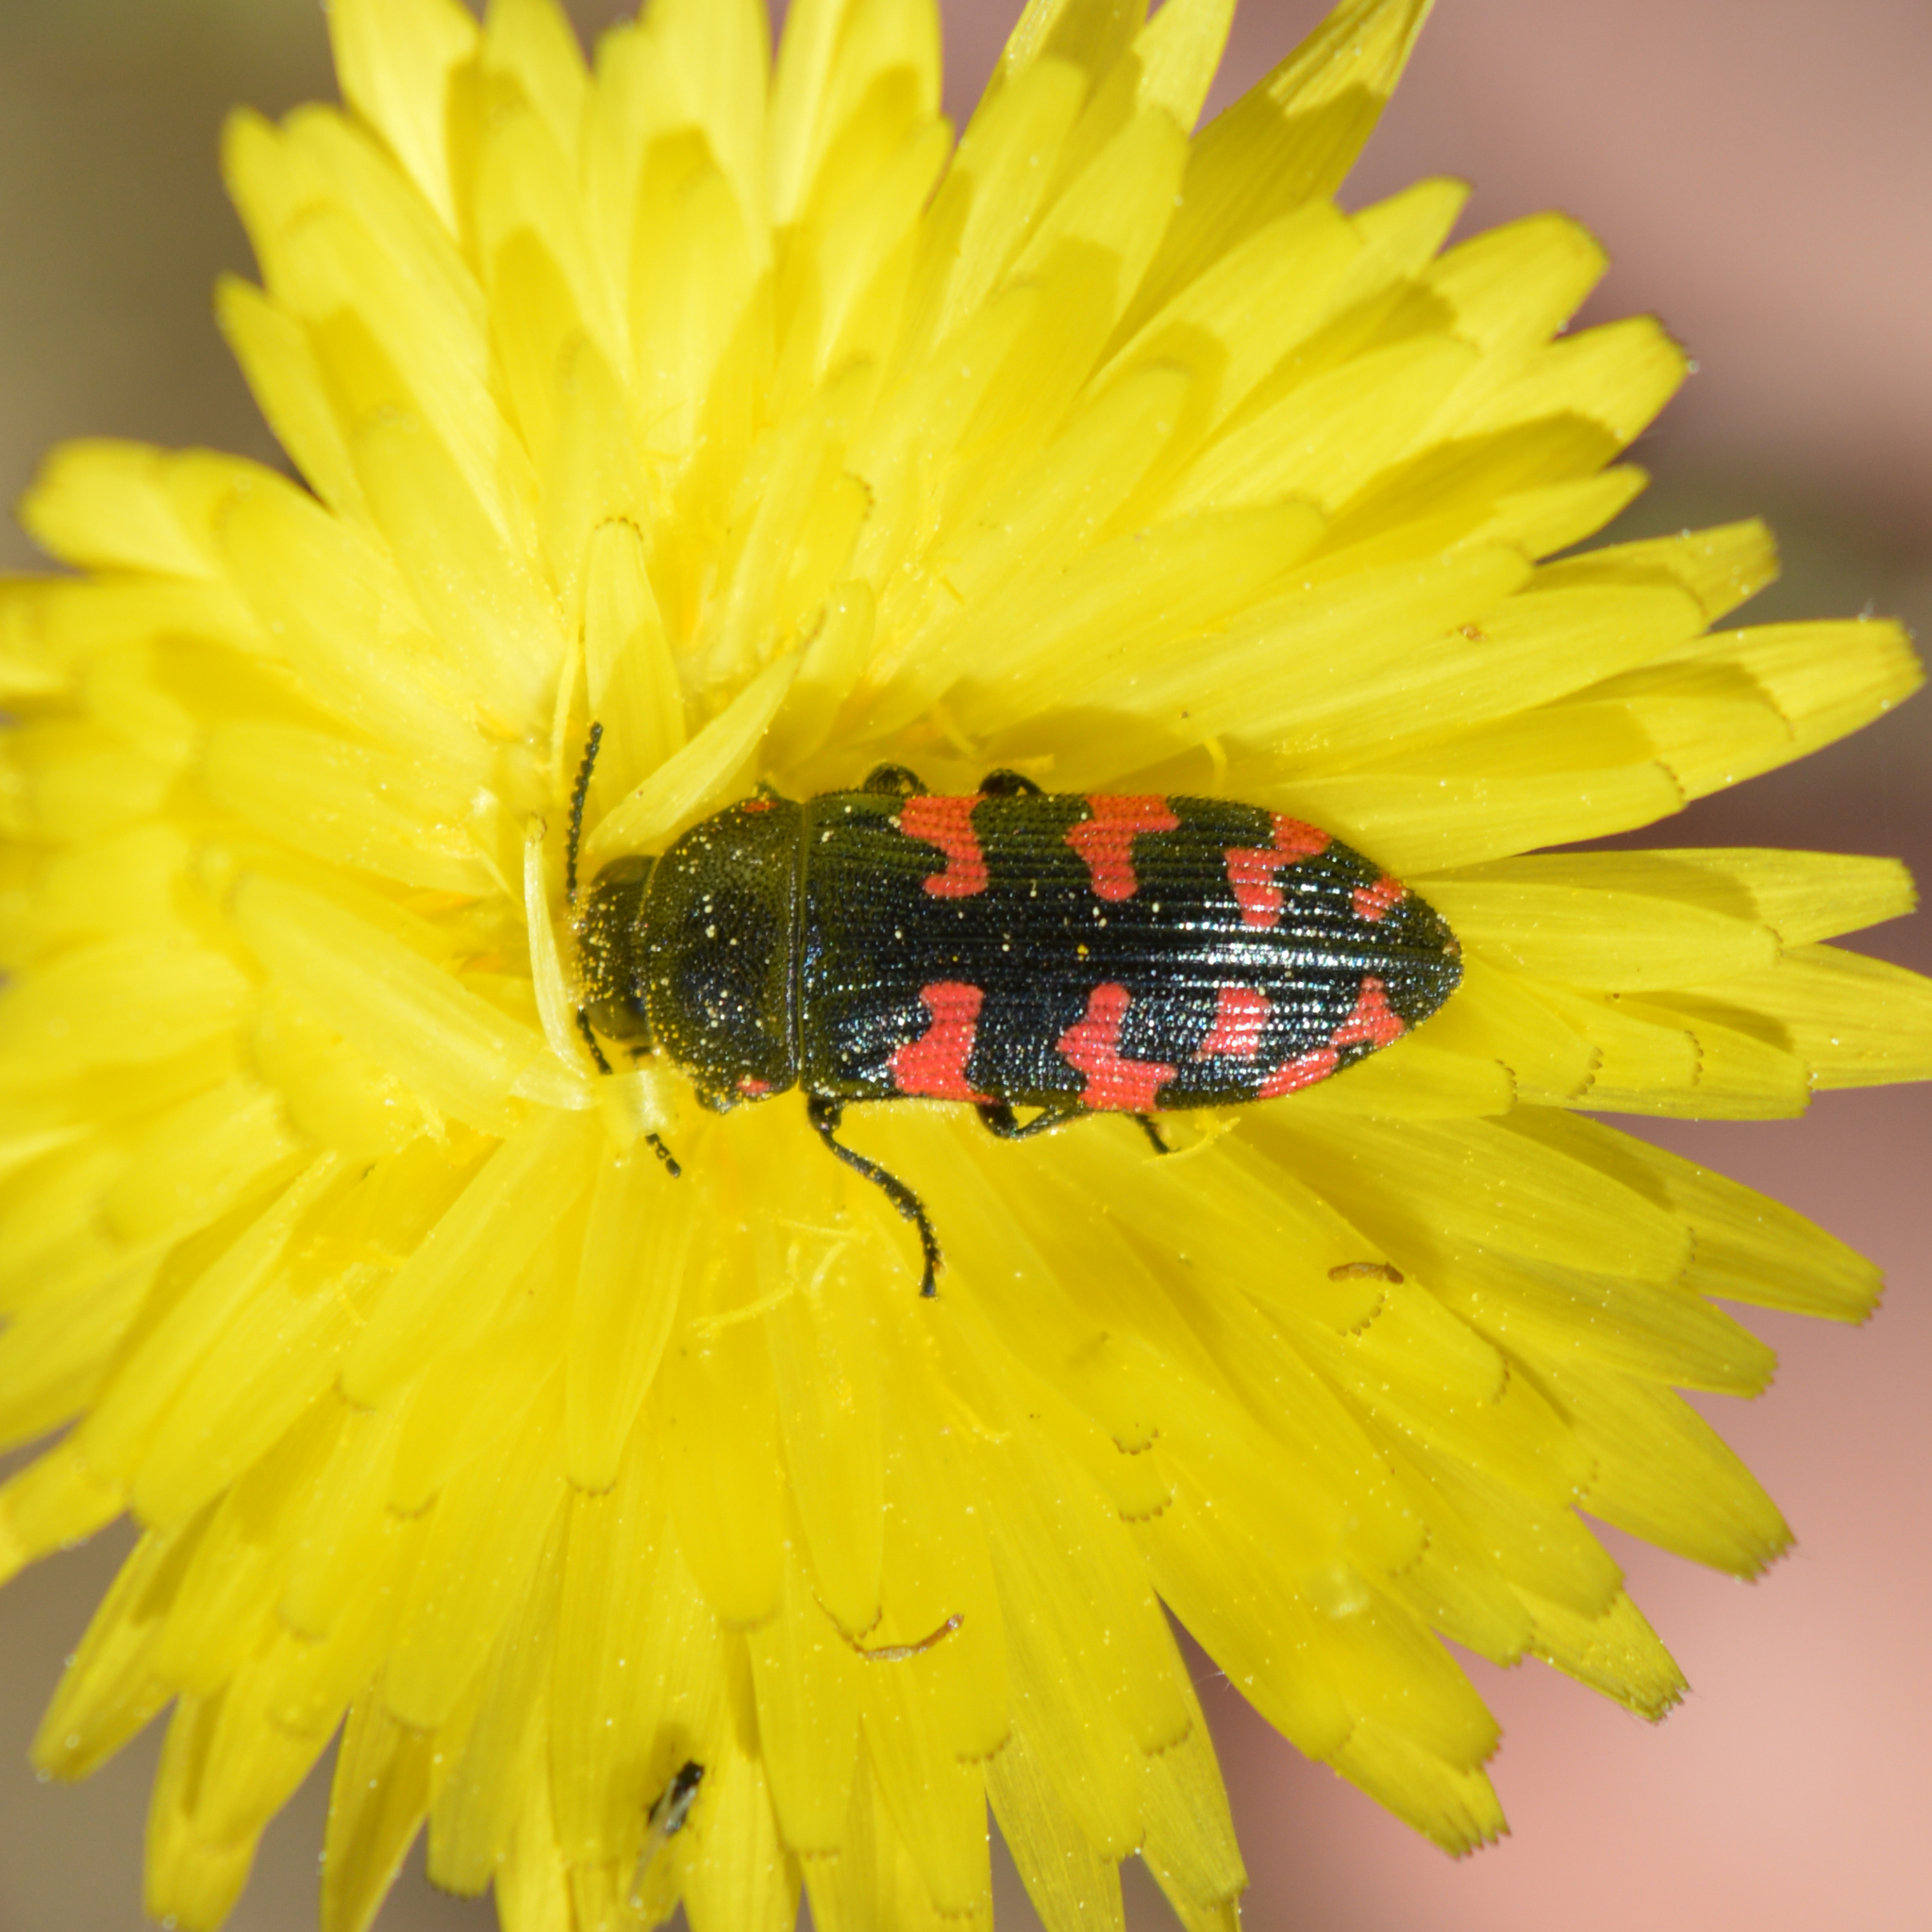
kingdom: Animalia
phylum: Arthropoda
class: Insecta
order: Coleoptera
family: Buprestidae
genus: Acmaeodera
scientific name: Acmaeodera quadrizonata
